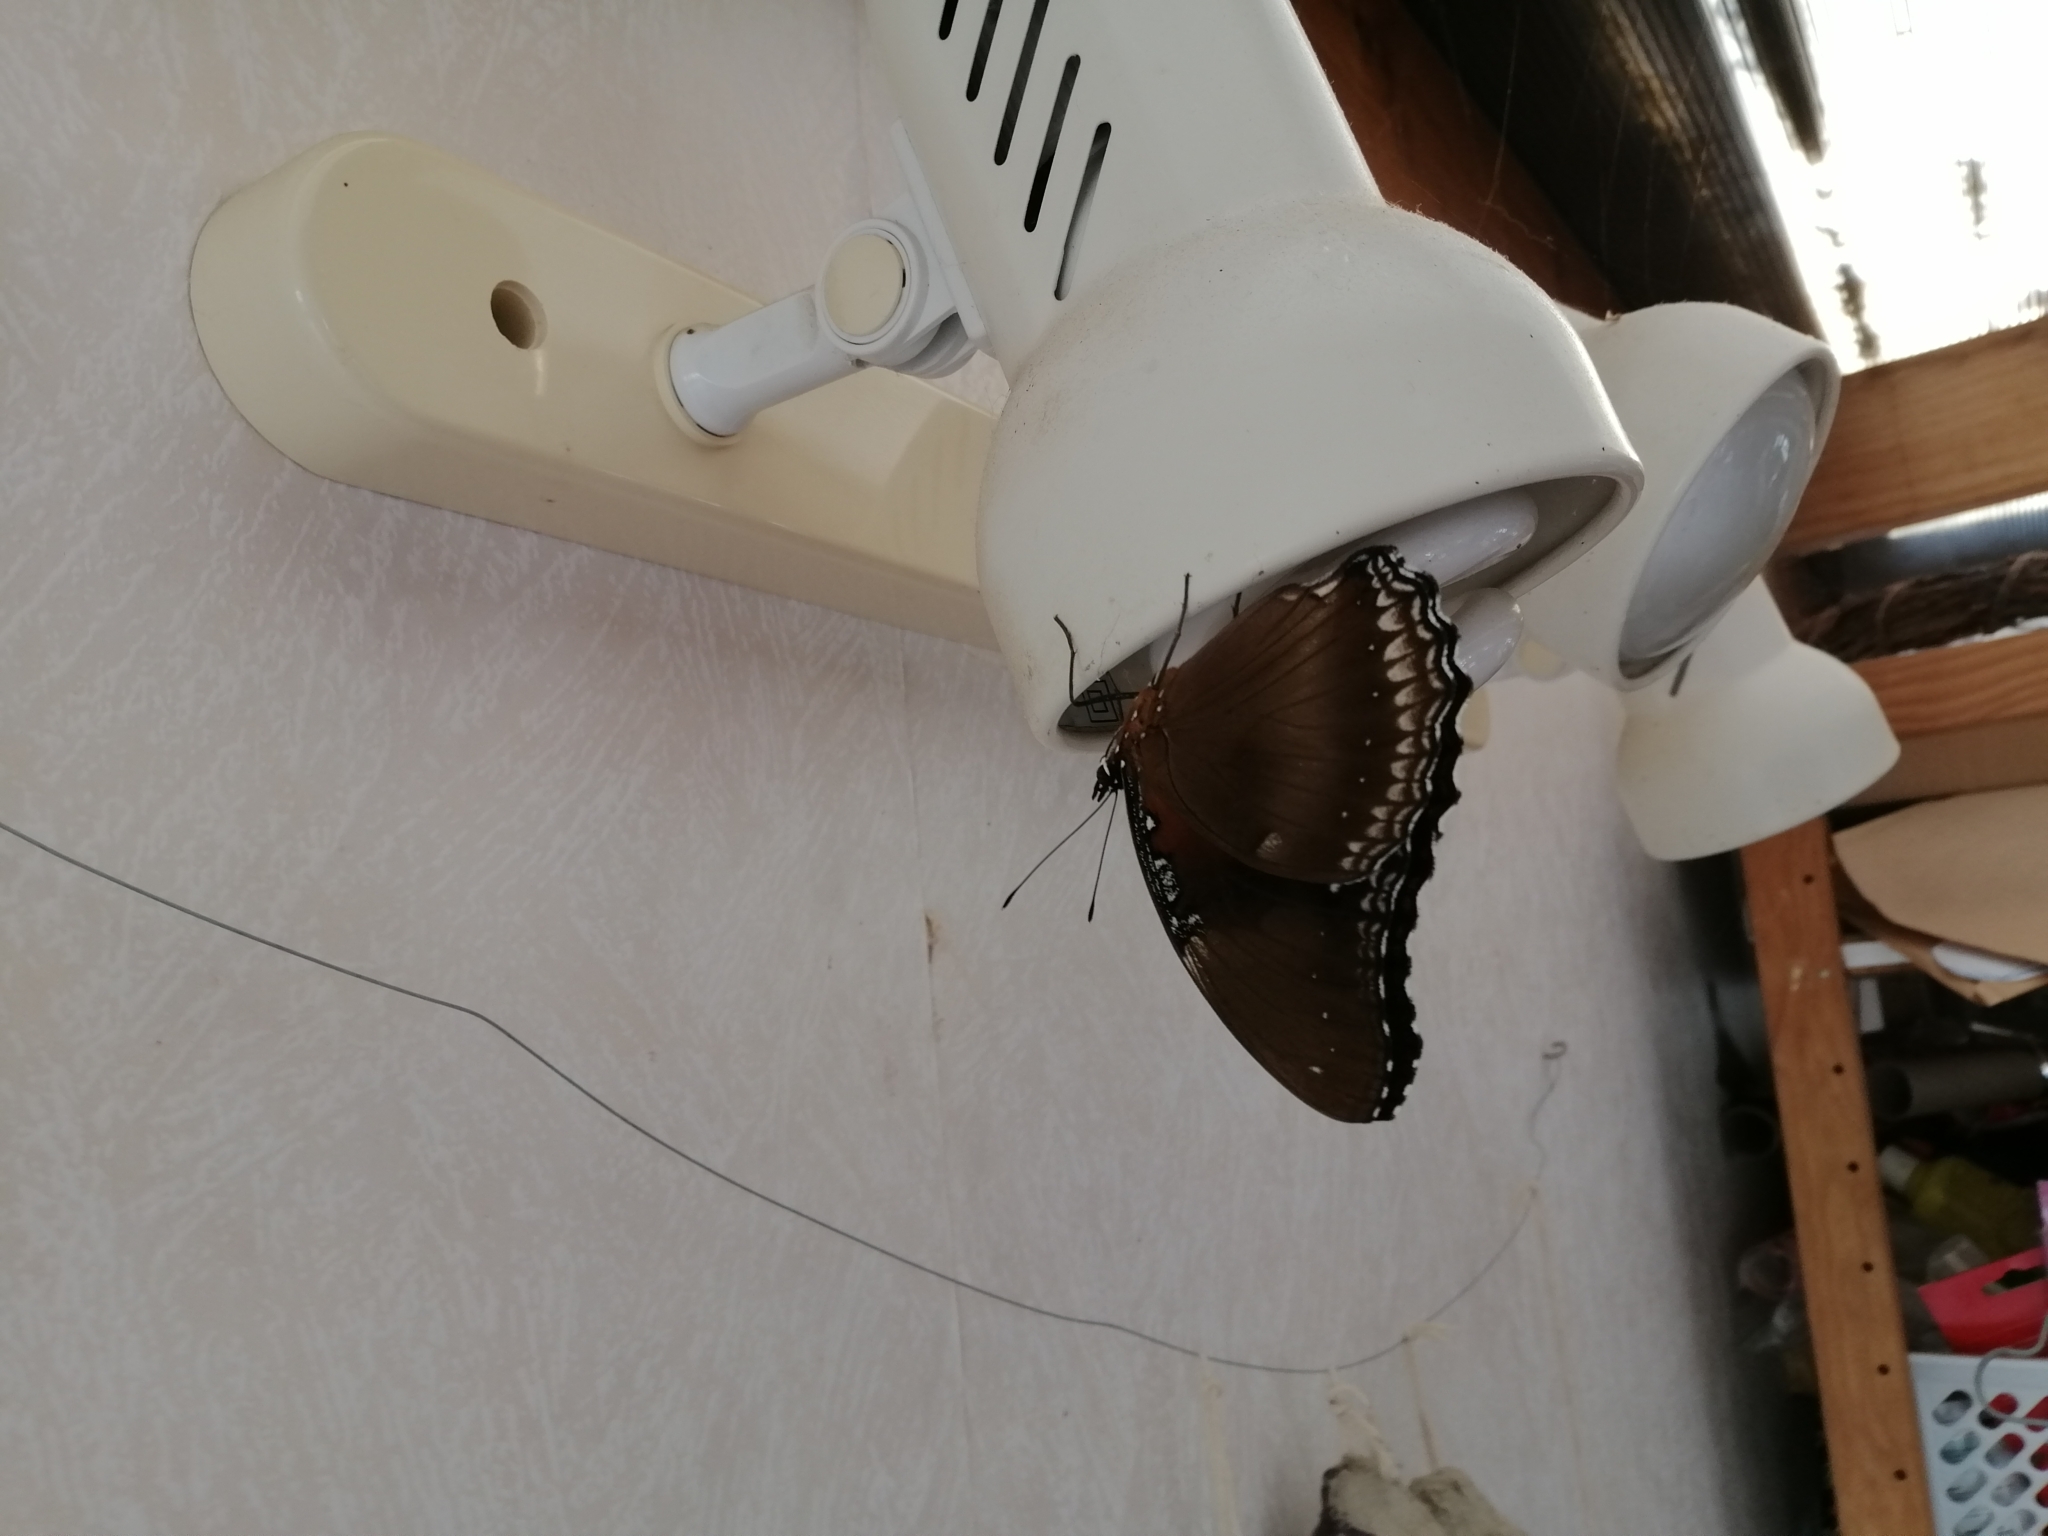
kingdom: Animalia
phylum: Arthropoda
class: Insecta
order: Lepidoptera
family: Nymphalidae
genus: Hypolimnas
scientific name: Hypolimnas bolina
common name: Great eggfly
